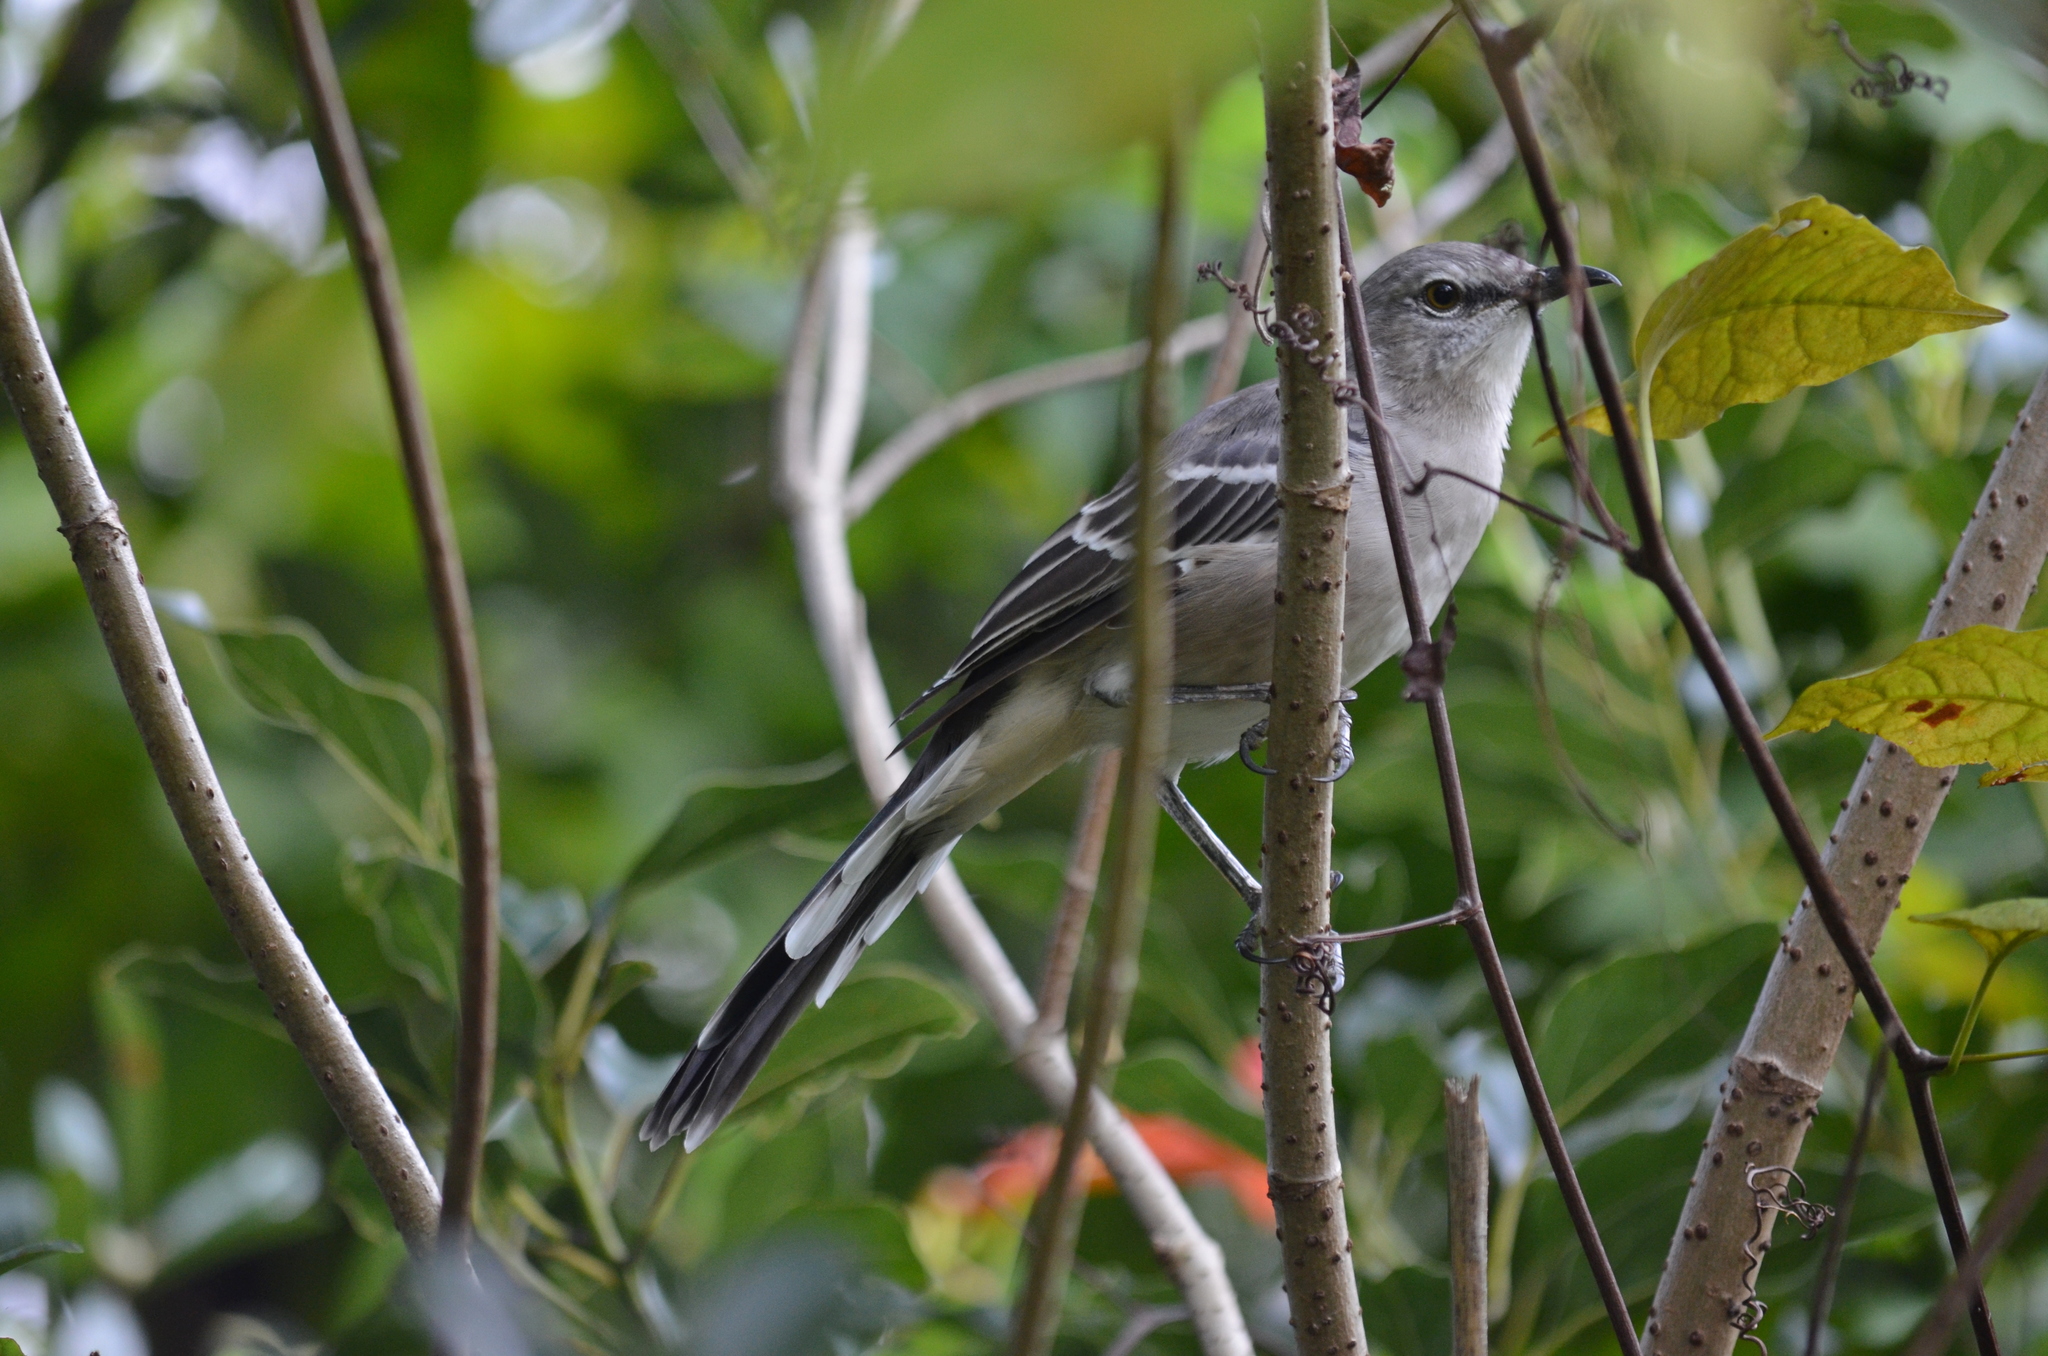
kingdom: Animalia
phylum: Chordata
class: Aves
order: Passeriformes
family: Mimidae
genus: Mimus
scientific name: Mimus polyglottos
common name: Northern mockingbird
